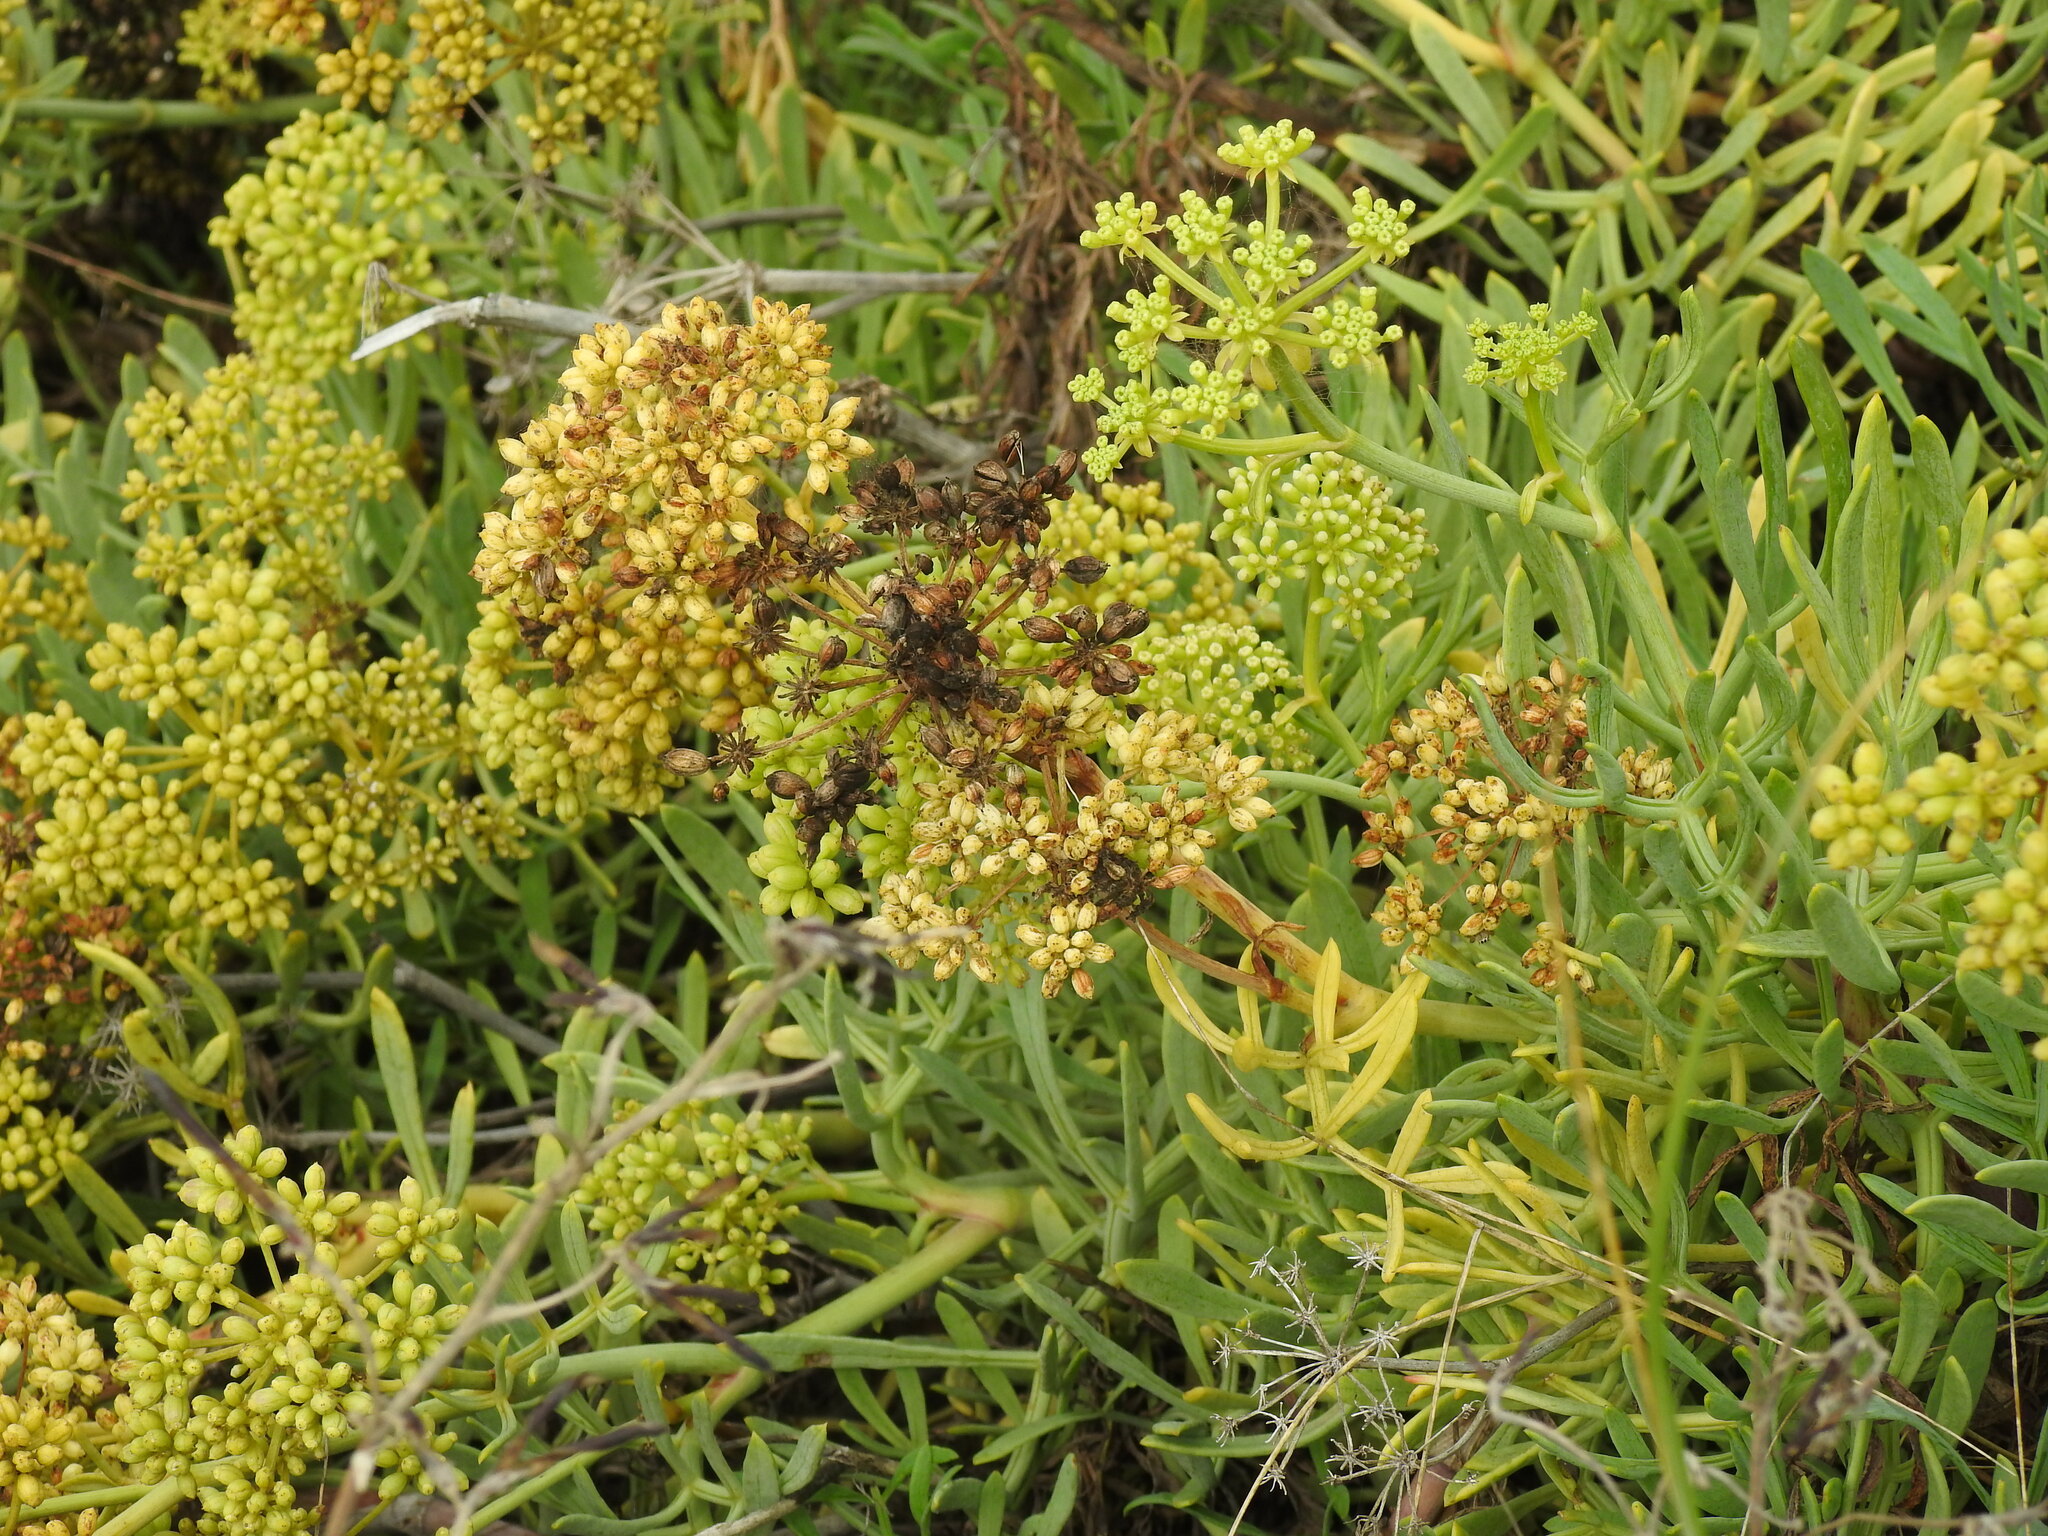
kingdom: Plantae
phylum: Tracheophyta
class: Magnoliopsida
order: Apiales
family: Apiaceae
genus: Crithmum
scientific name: Crithmum maritimum
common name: Rock samphire
